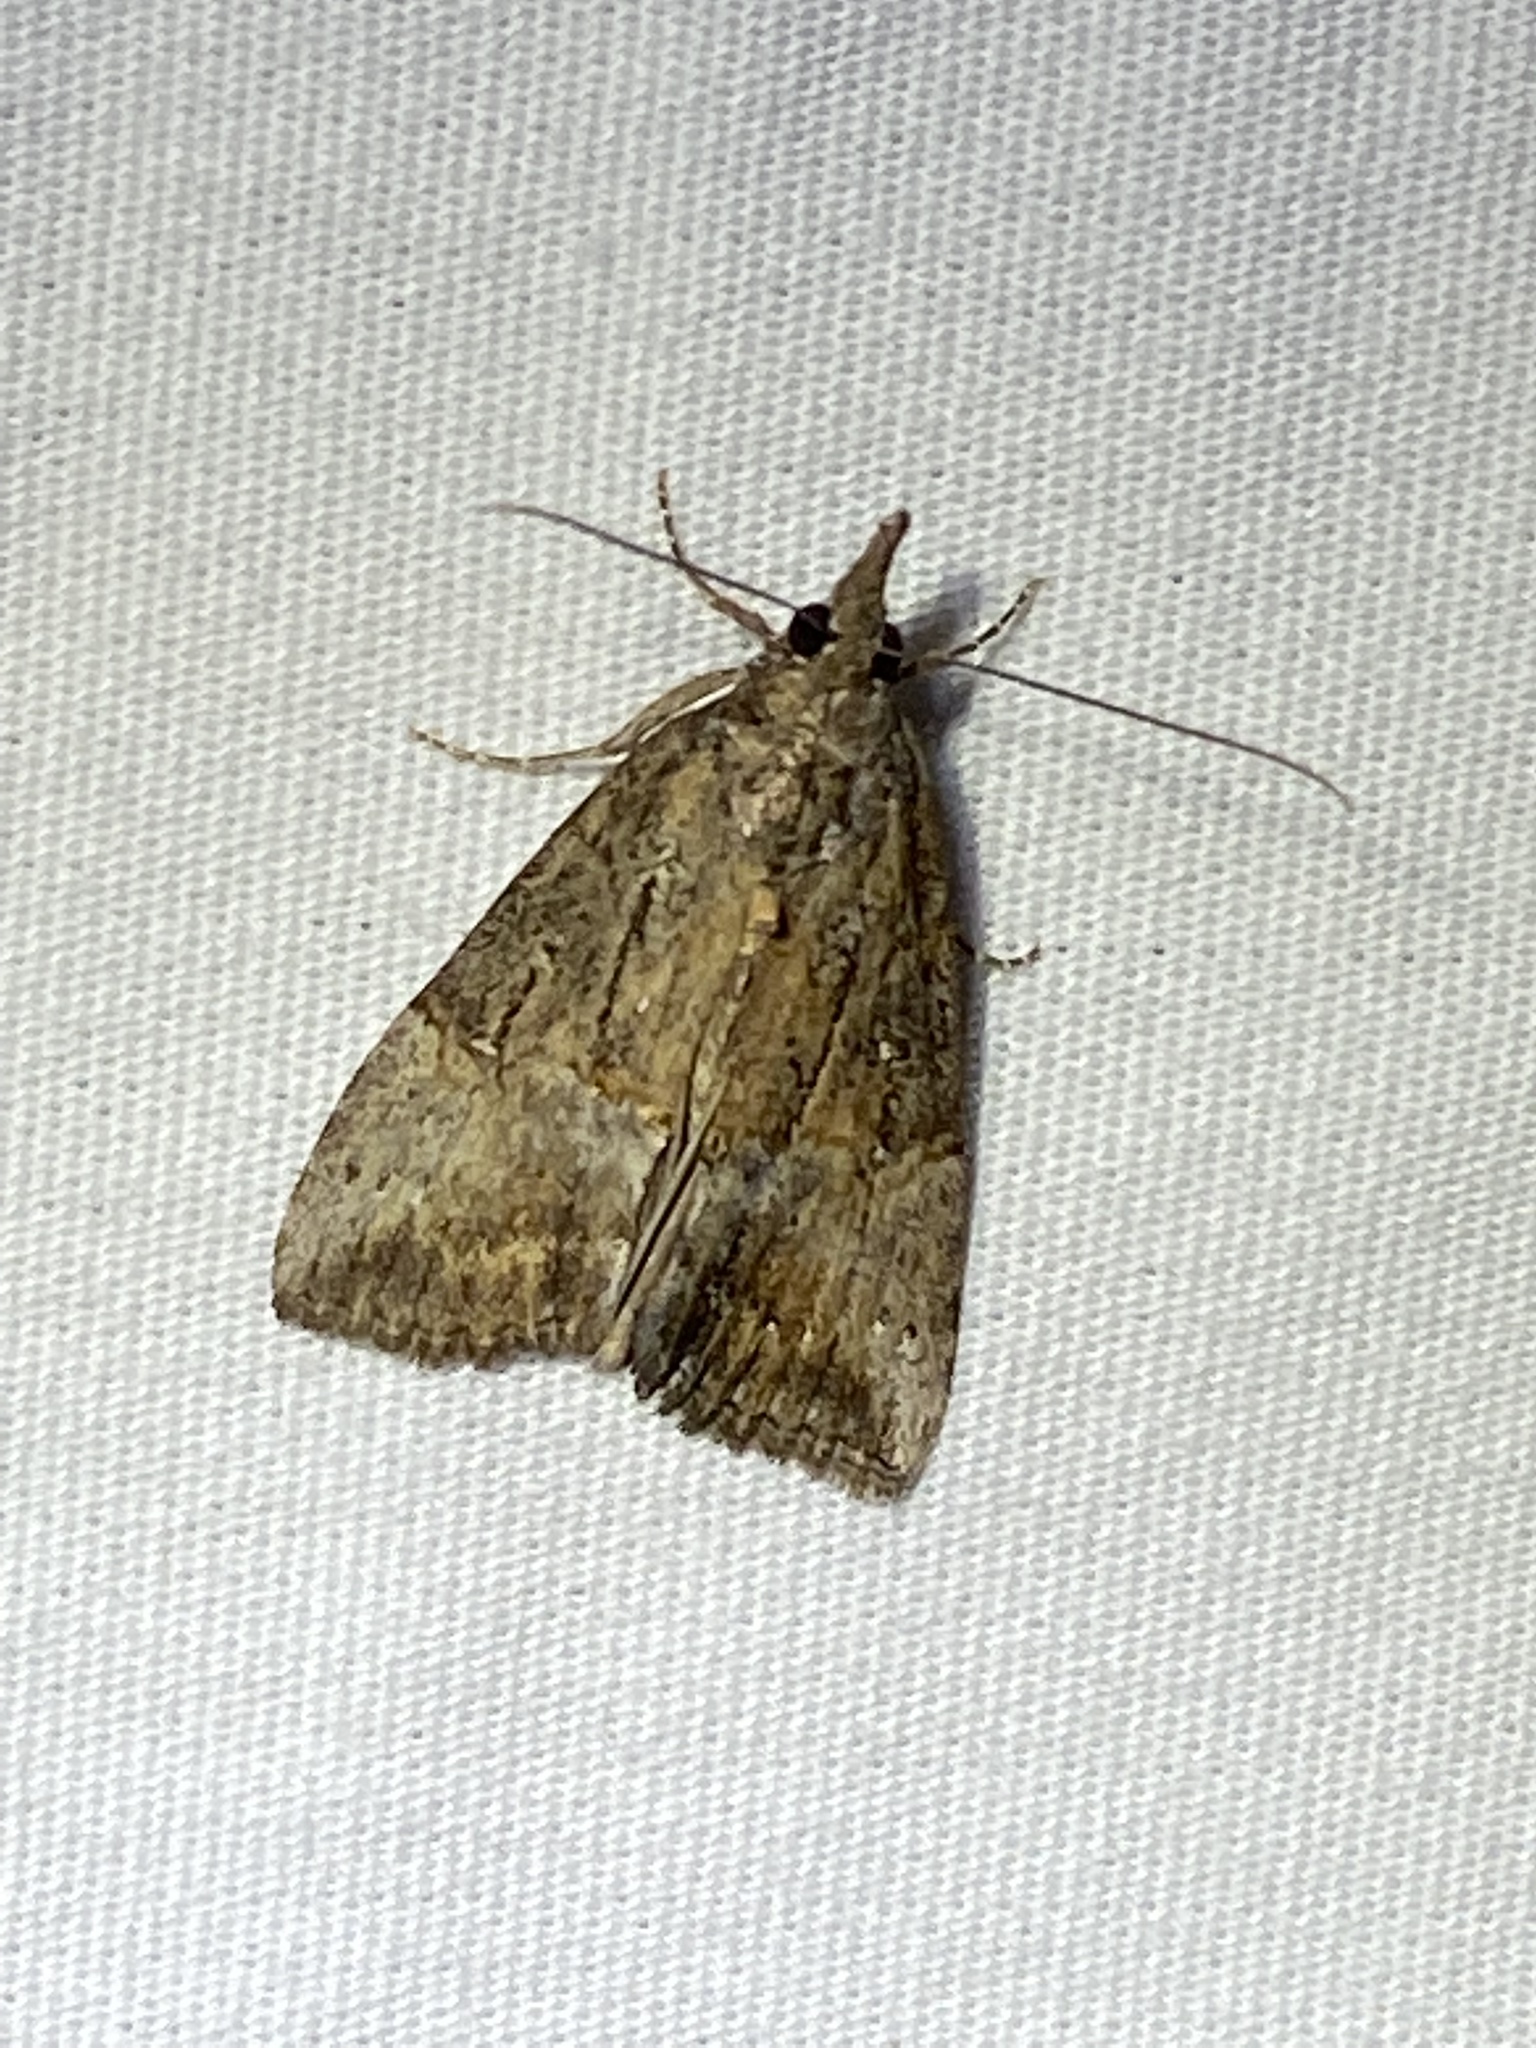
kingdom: Animalia
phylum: Arthropoda
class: Insecta
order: Lepidoptera
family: Erebidae
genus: Hypena
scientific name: Hypena scabra
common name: Green cloverworm
